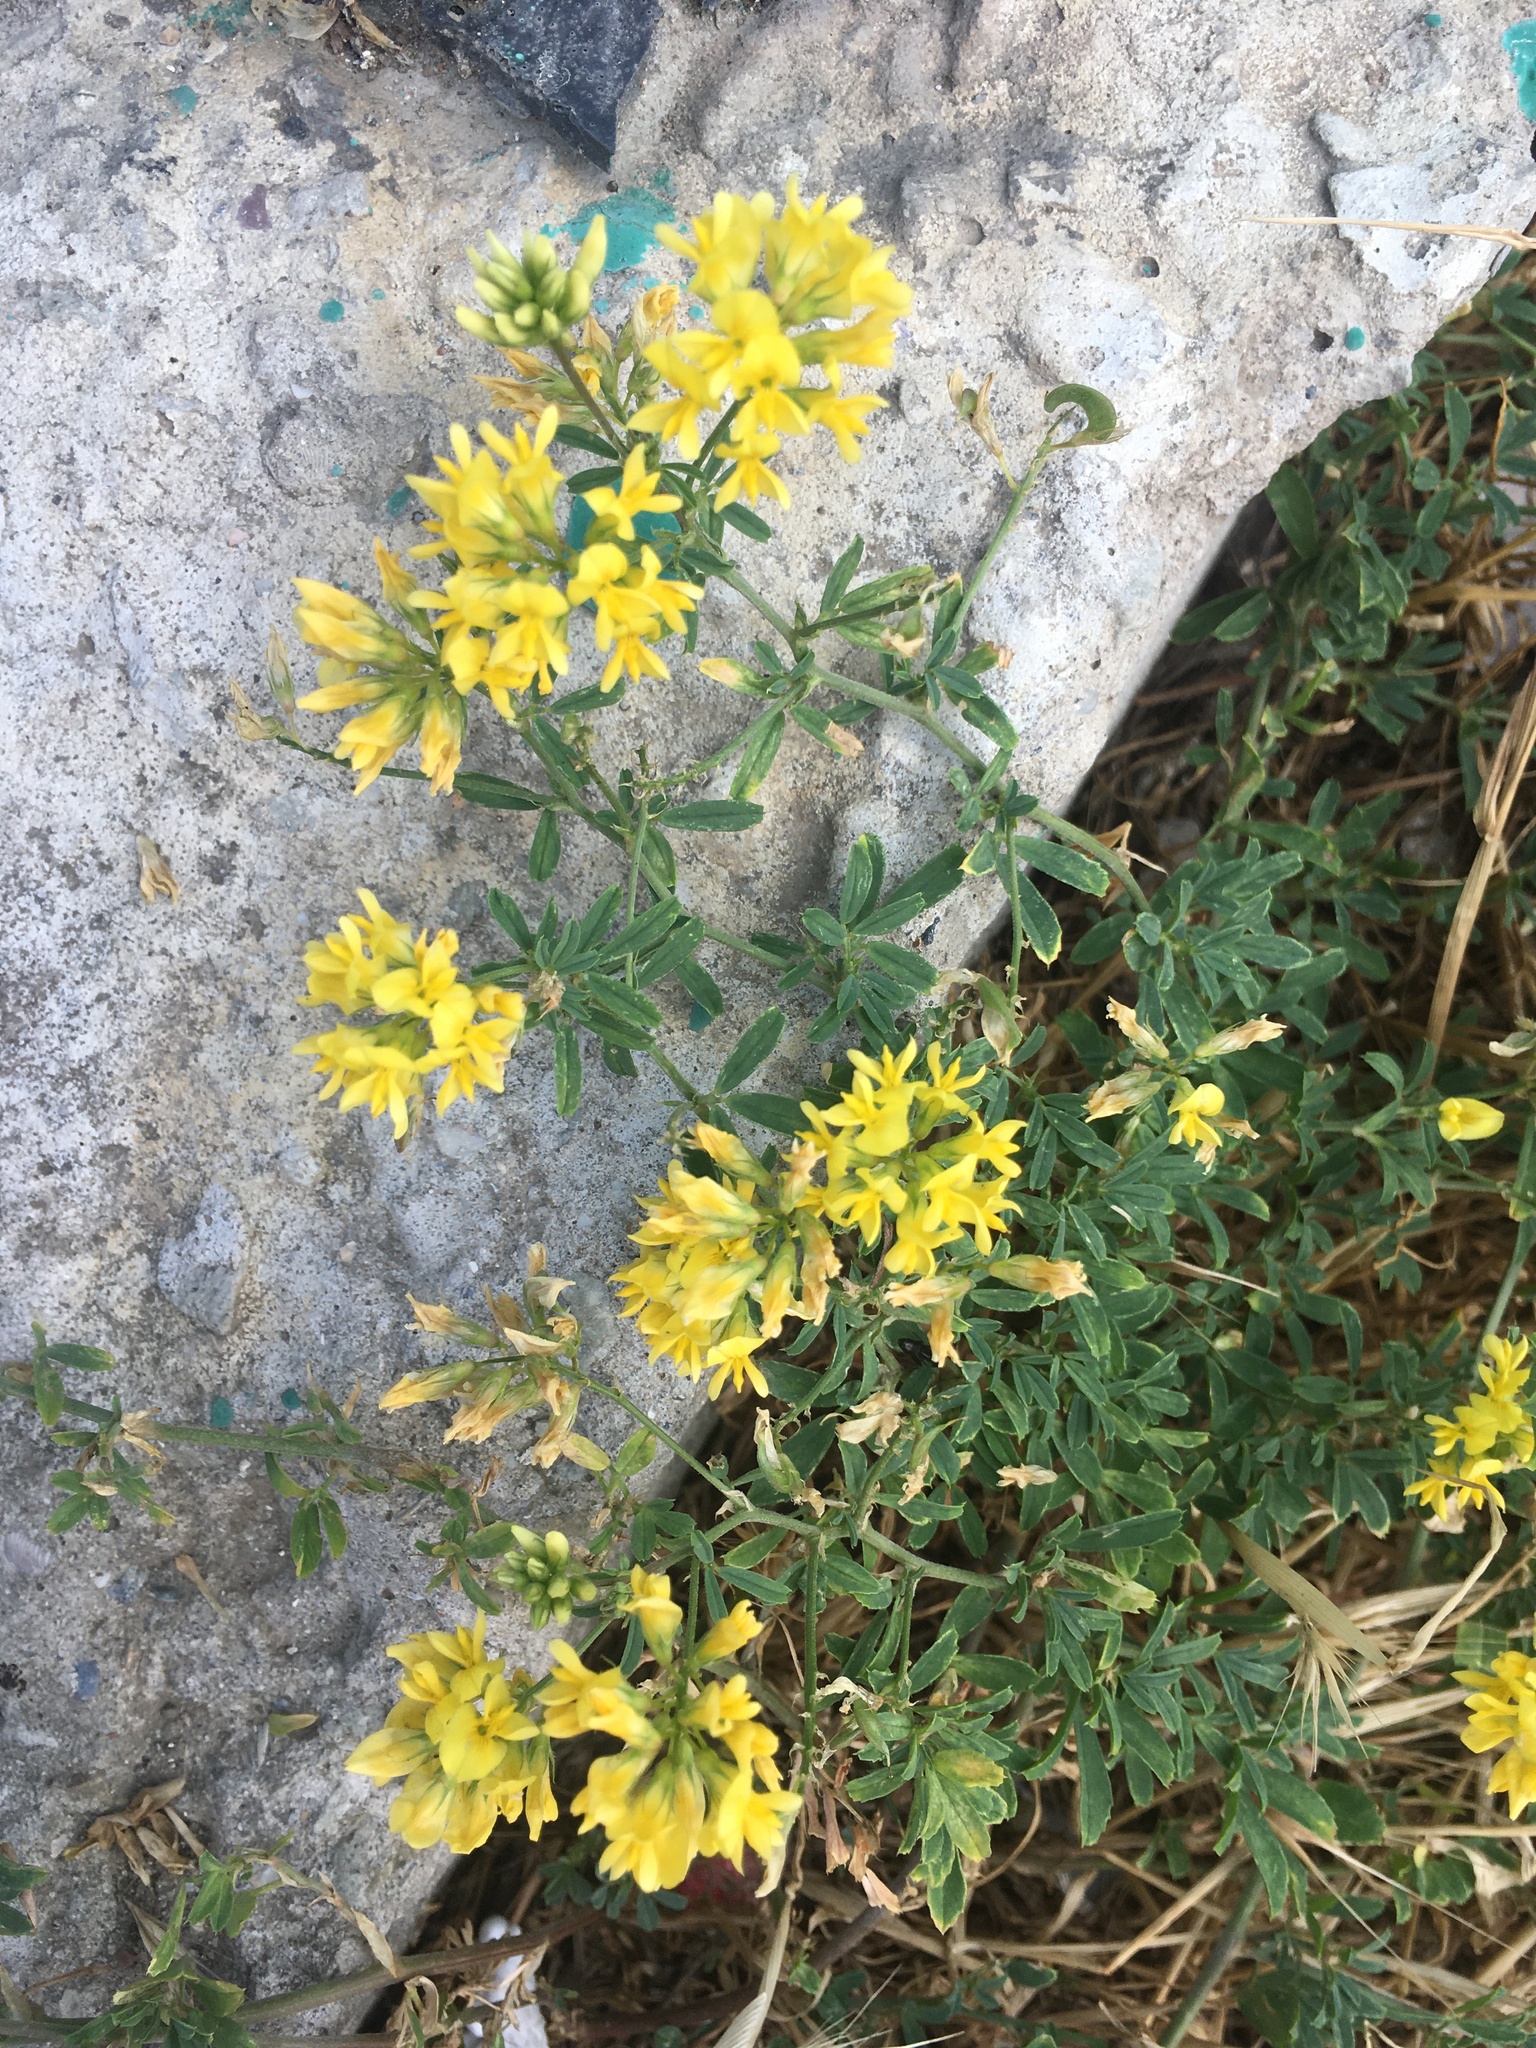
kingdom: Plantae
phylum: Tracheophyta
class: Magnoliopsida
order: Fabales
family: Fabaceae
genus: Medicago
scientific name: Medicago falcata
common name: Sickle medick
